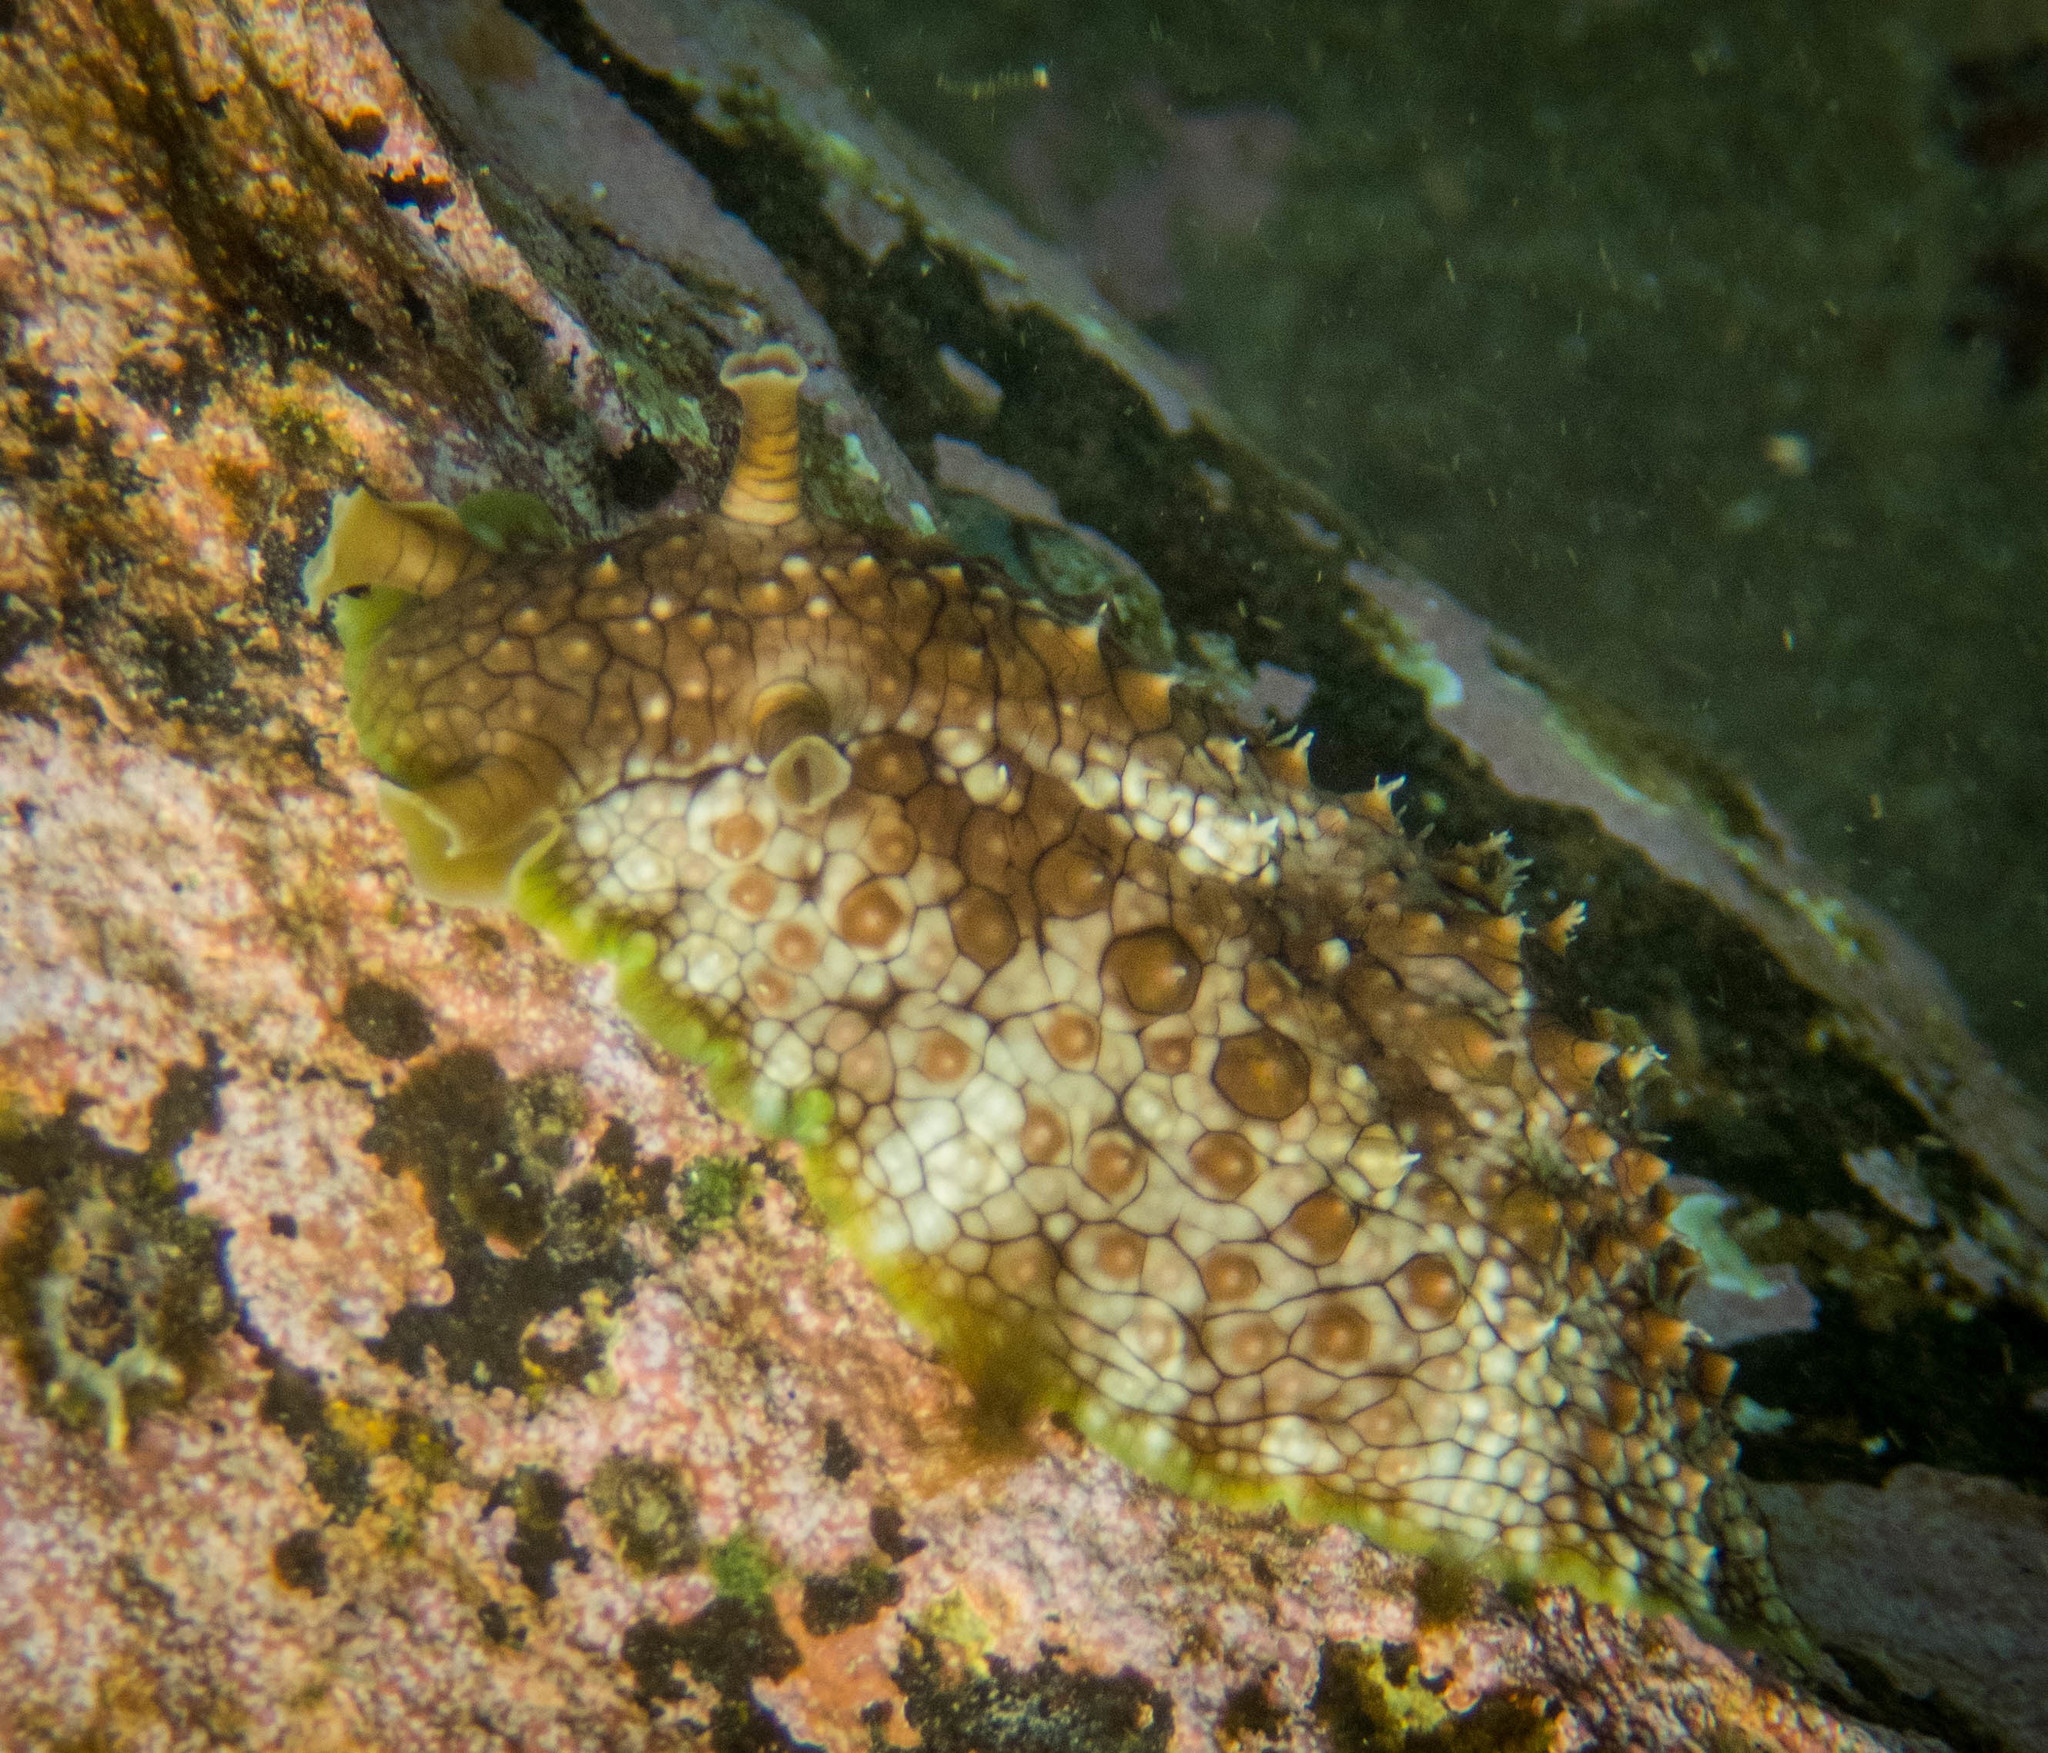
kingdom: Animalia
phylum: Mollusca
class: Gastropoda
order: Aplysiida
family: Aplysiidae
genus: Dolabrifera
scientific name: Dolabrifera brazieri
